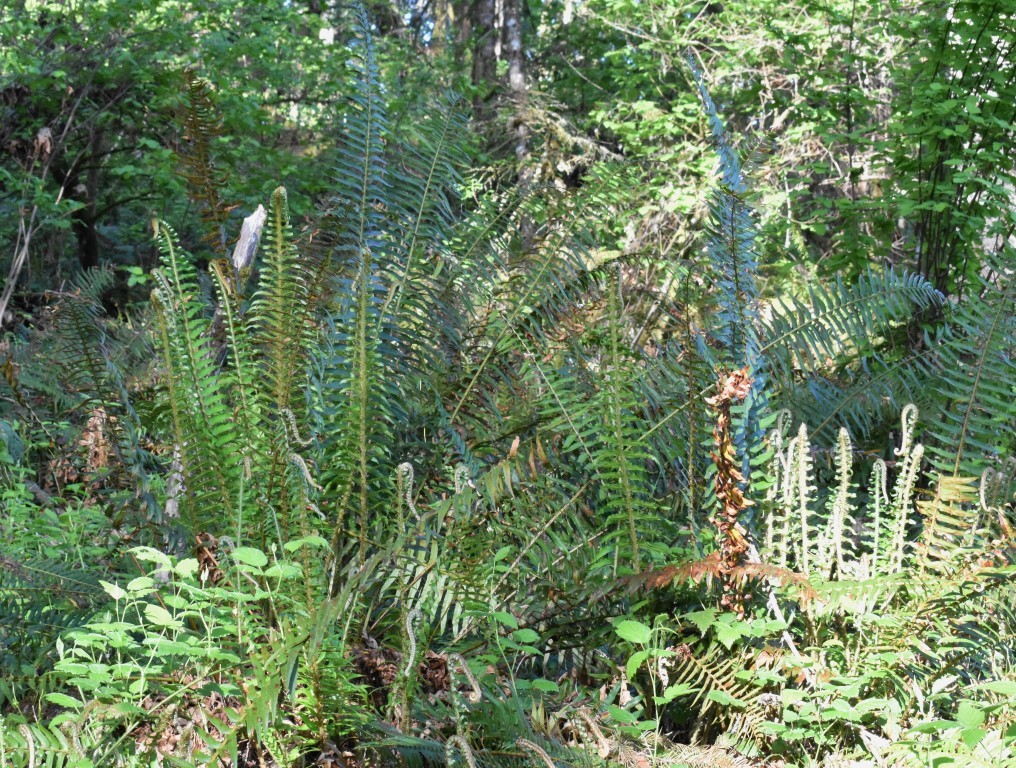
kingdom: Plantae
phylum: Tracheophyta
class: Polypodiopsida
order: Polypodiales
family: Dryopteridaceae
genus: Polystichum
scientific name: Polystichum munitum
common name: Western sword-fern
